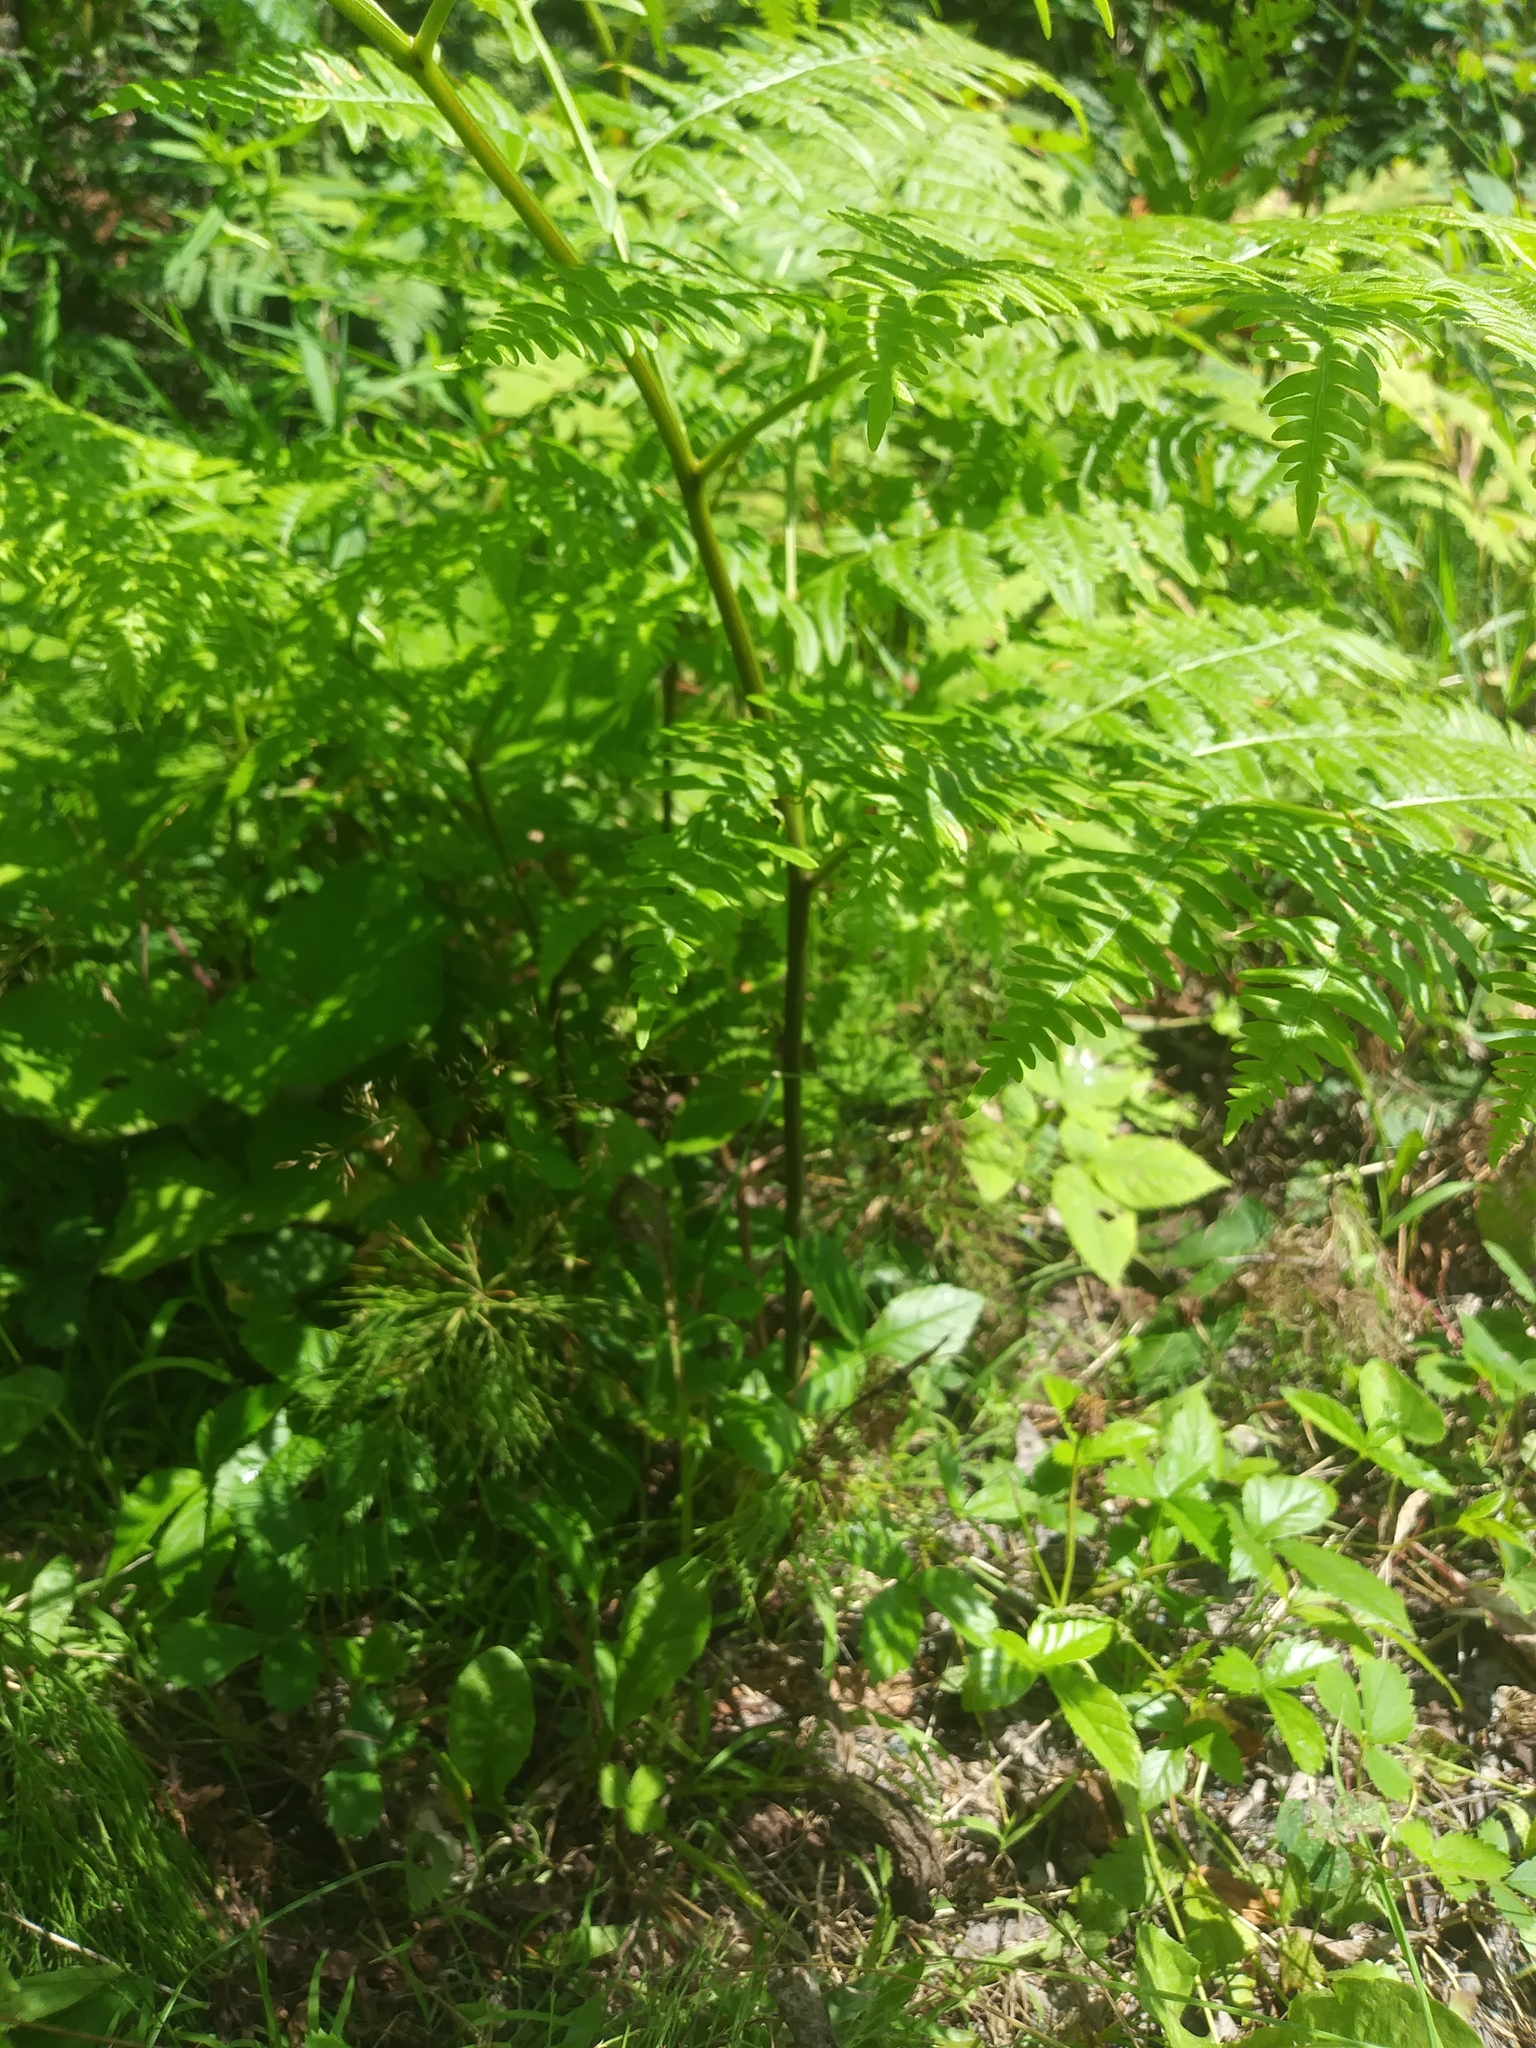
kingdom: Plantae
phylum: Tracheophyta
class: Polypodiopsida
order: Polypodiales
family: Dennstaedtiaceae
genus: Pteridium
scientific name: Pteridium aquilinum
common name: Bracken
